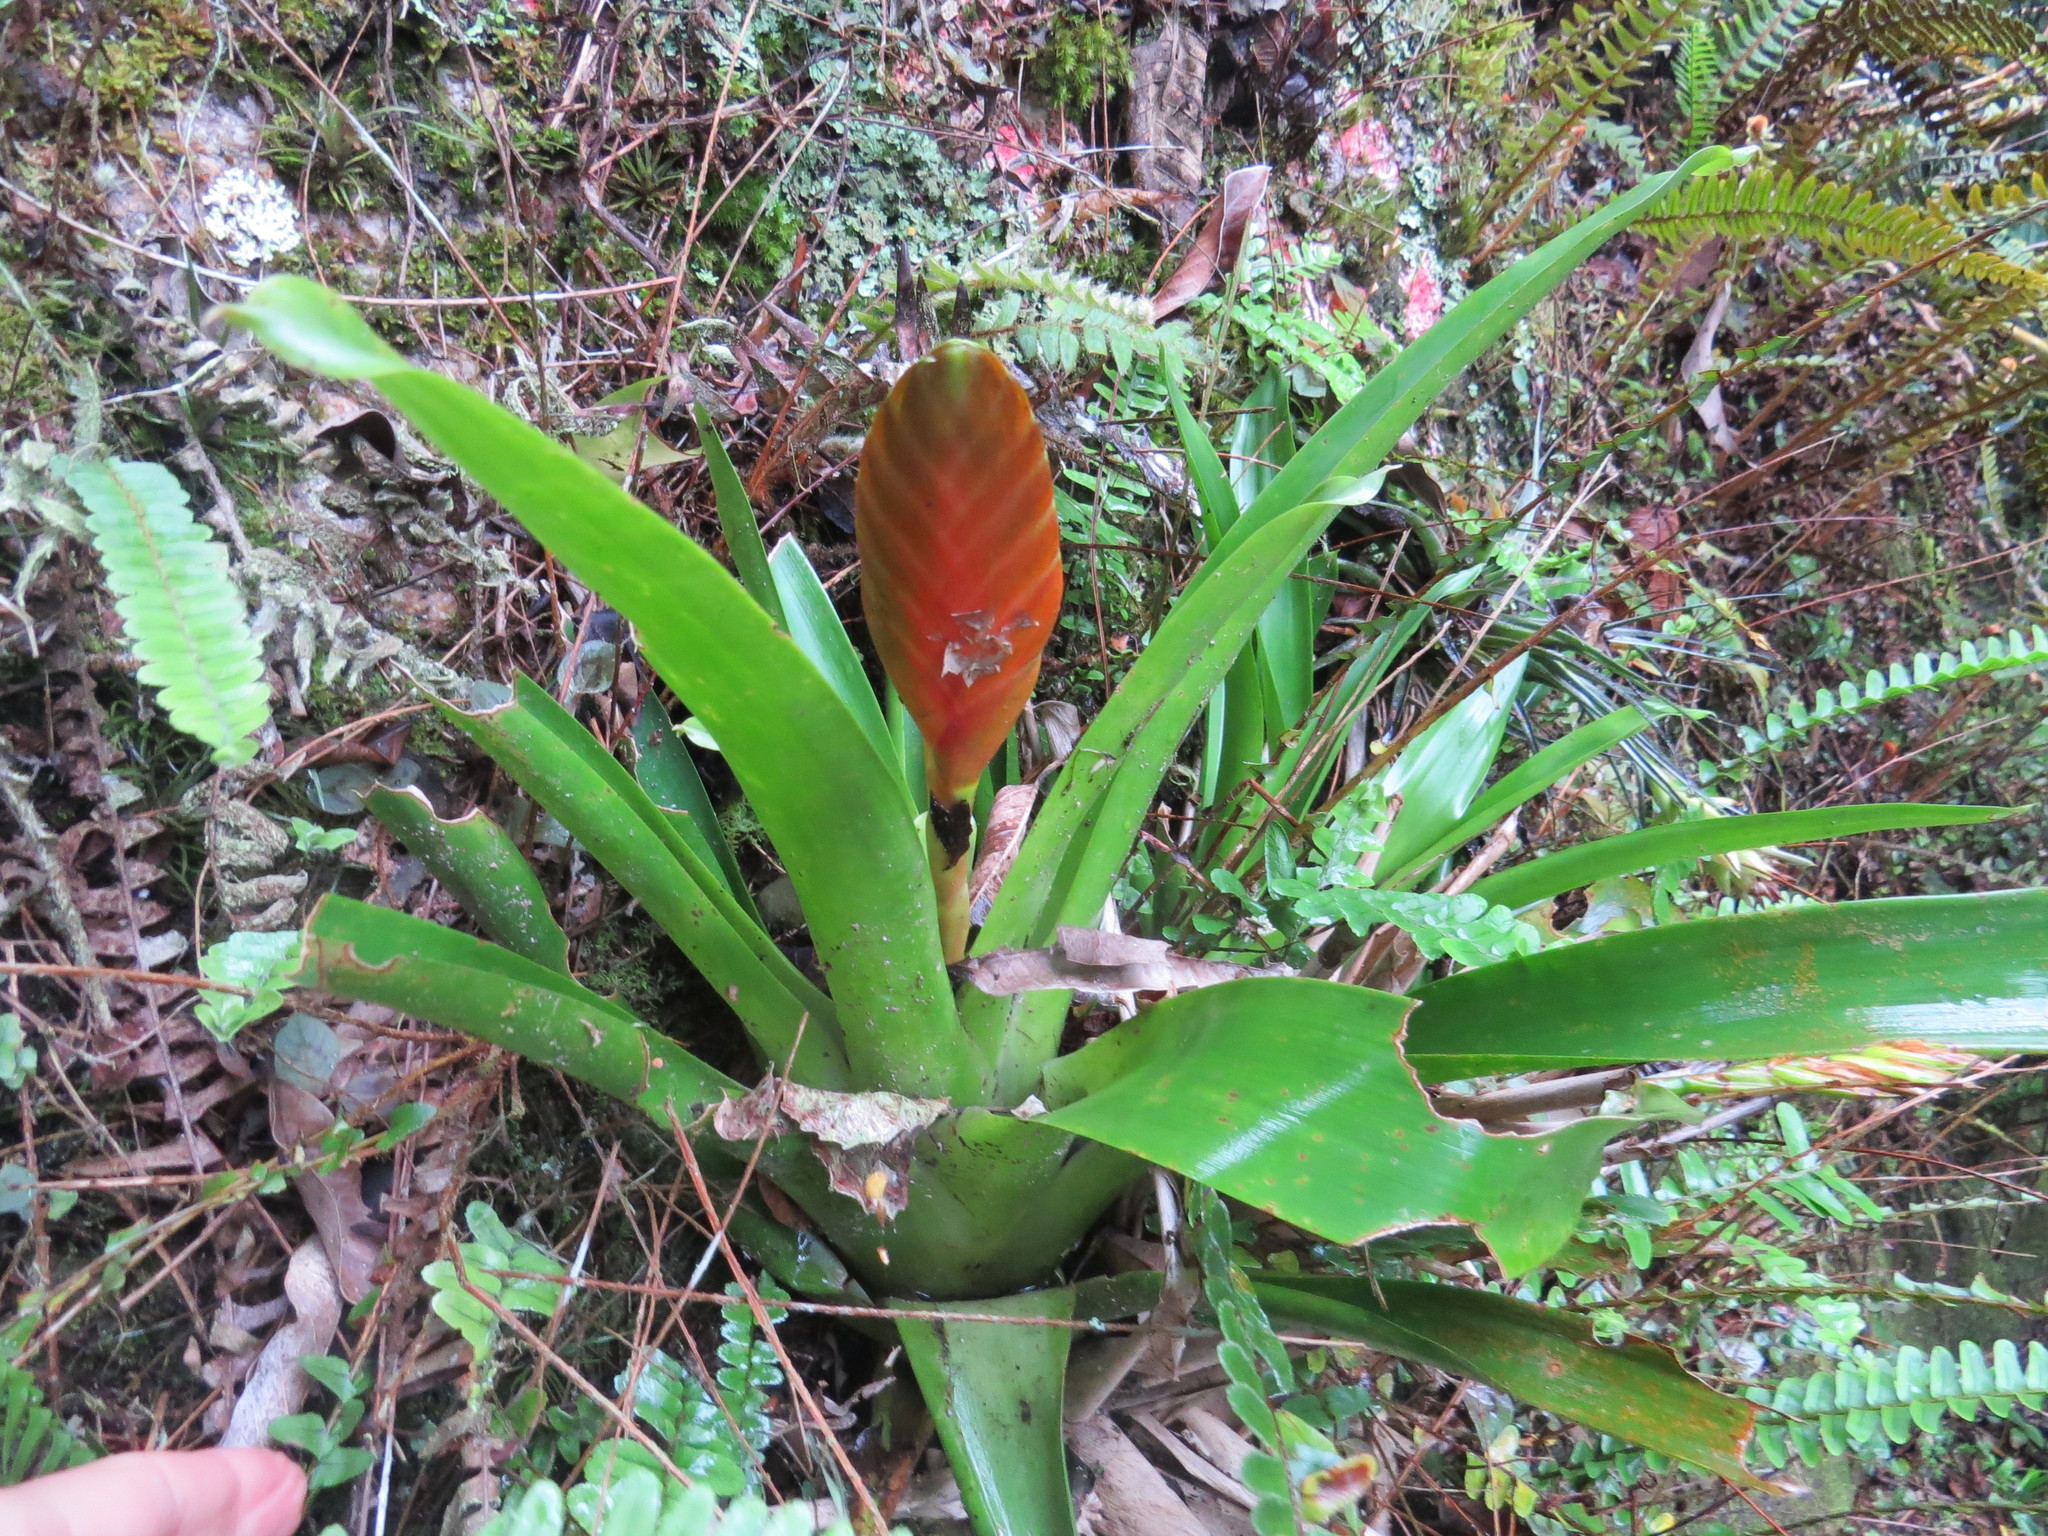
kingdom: Plantae
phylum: Tracheophyta
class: Liliopsida
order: Poales
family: Bromeliaceae
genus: Vriesea
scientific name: Vriesea paraibica
